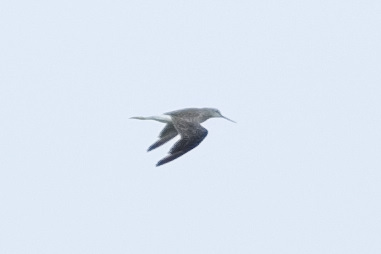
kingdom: Animalia
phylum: Chordata
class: Aves
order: Charadriiformes
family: Scolopacidae
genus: Tringa
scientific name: Tringa melanoleuca
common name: Greater yellowlegs
